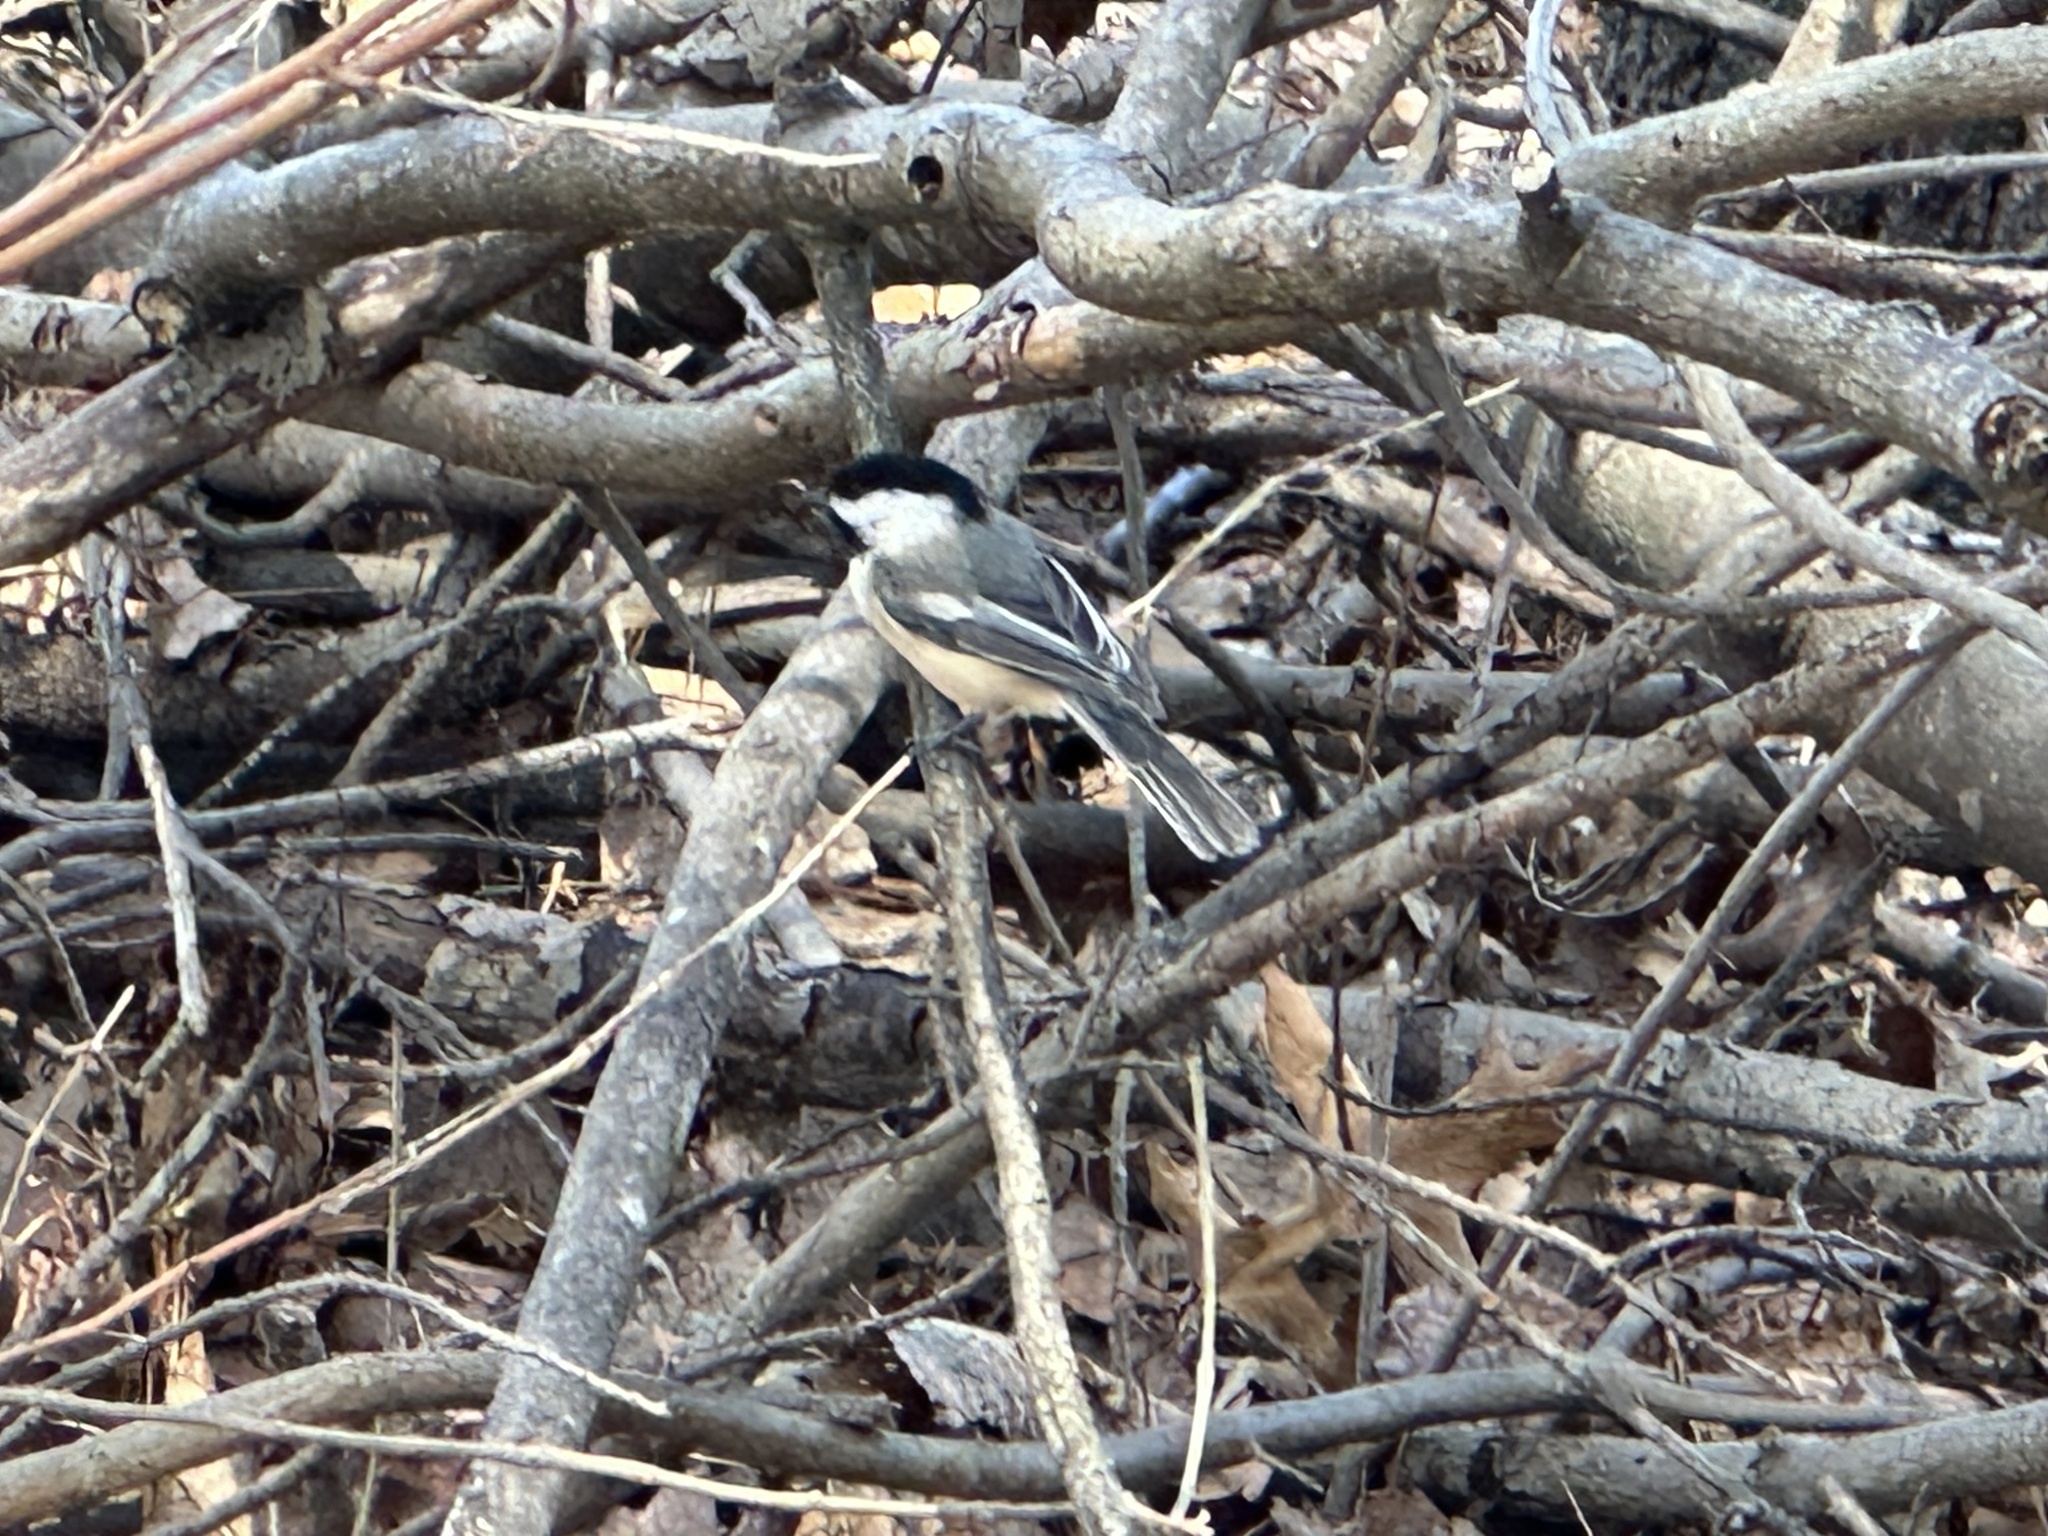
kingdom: Animalia
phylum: Chordata
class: Aves
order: Passeriformes
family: Paridae
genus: Poecile
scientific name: Poecile atricapillus
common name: Black-capped chickadee
